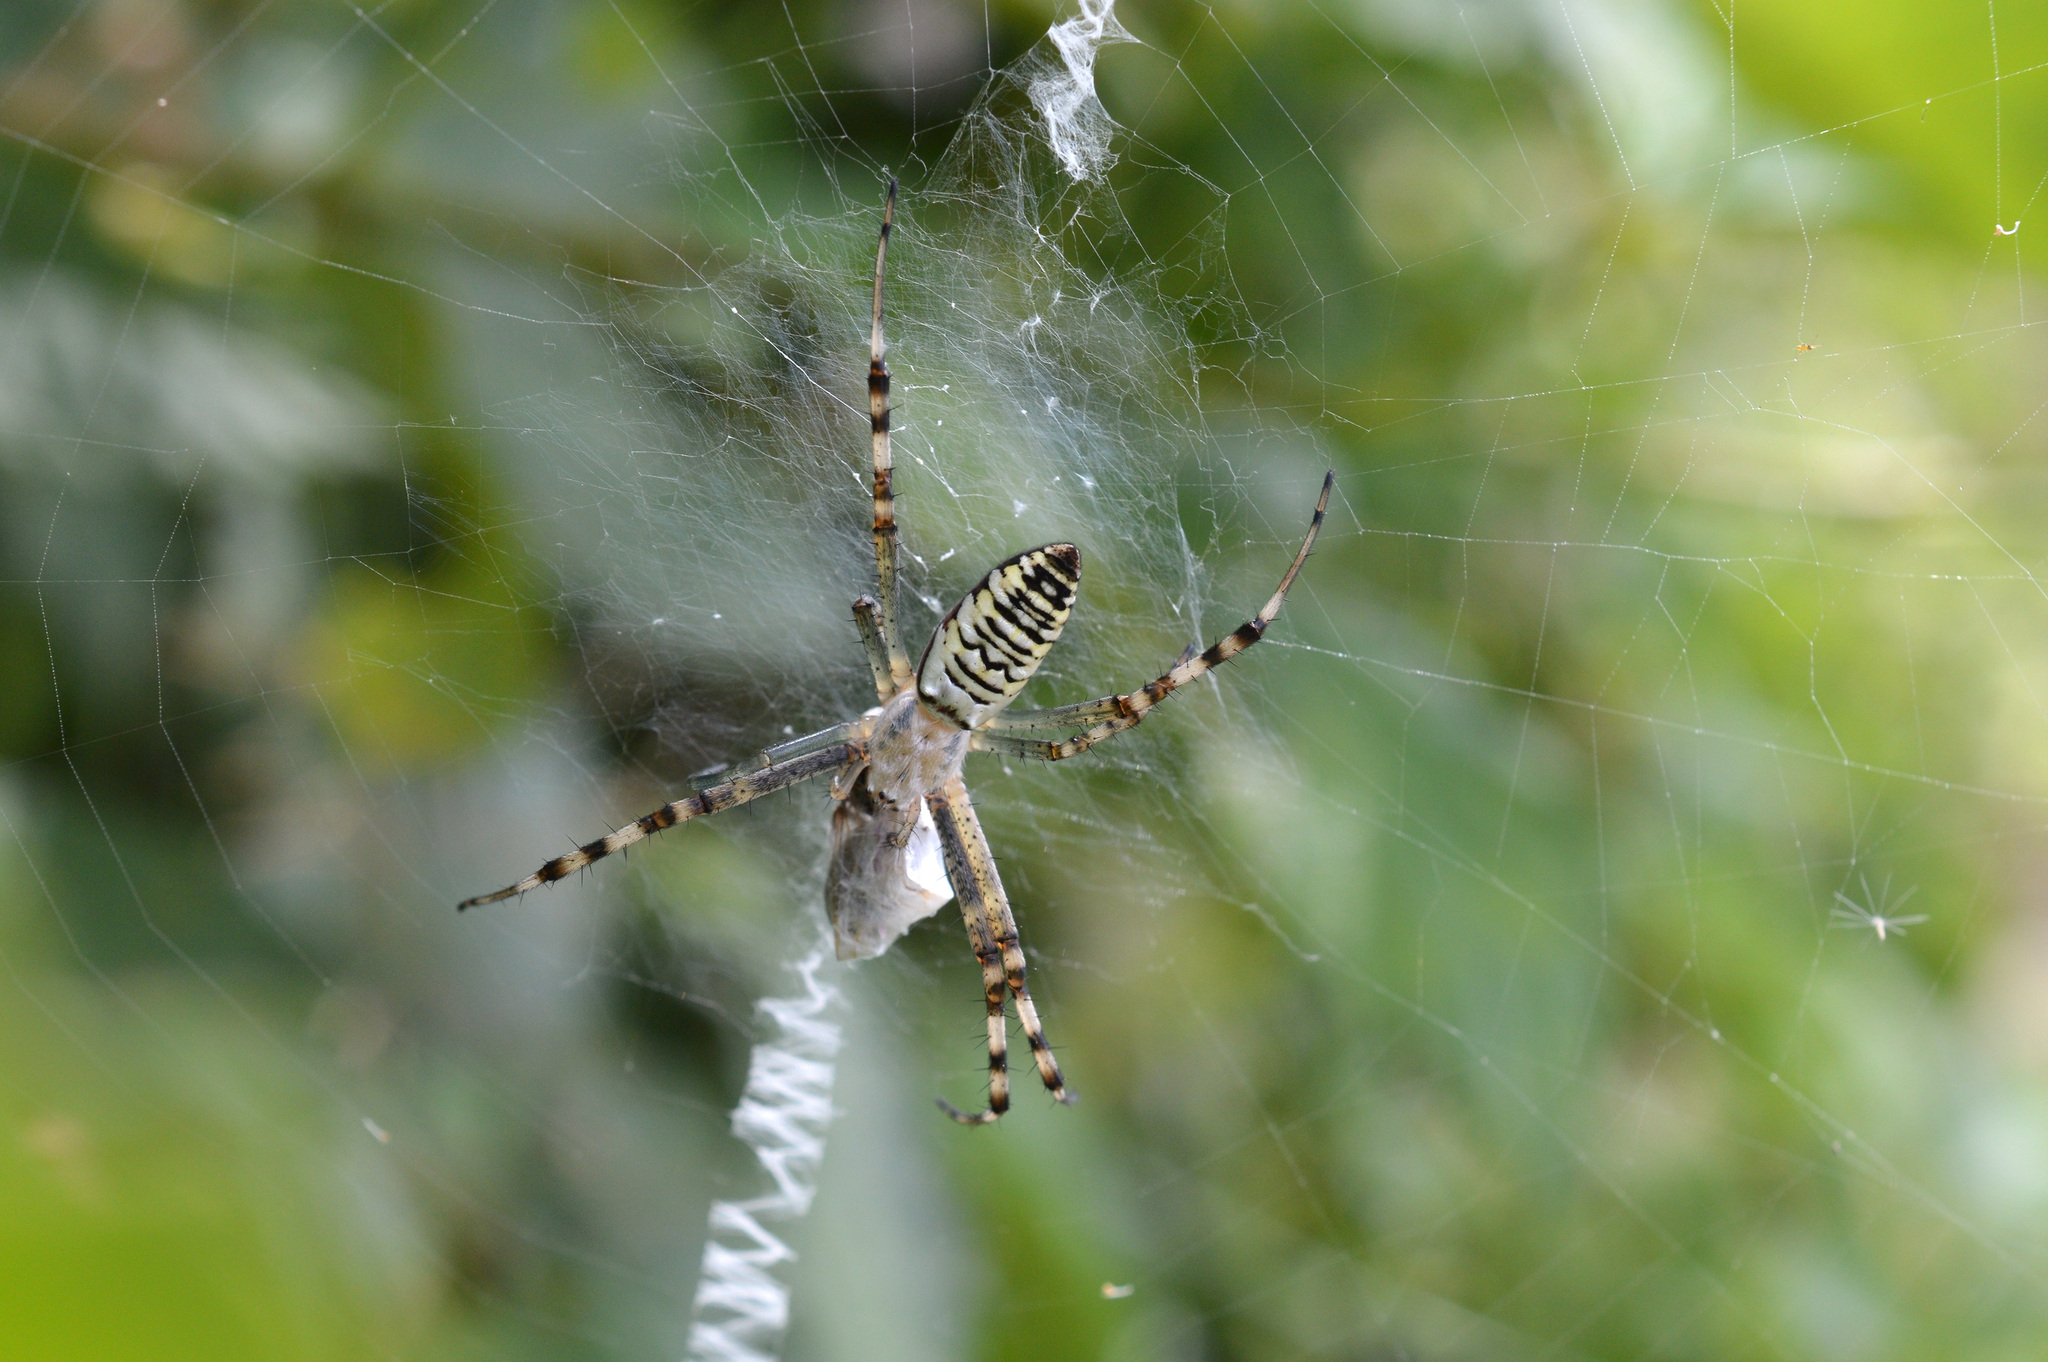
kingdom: Animalia
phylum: Arthropoda
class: Arachnida
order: Araneae
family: Araneidae
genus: Argiope
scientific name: Argiope bruennichi
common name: Wasp spider
